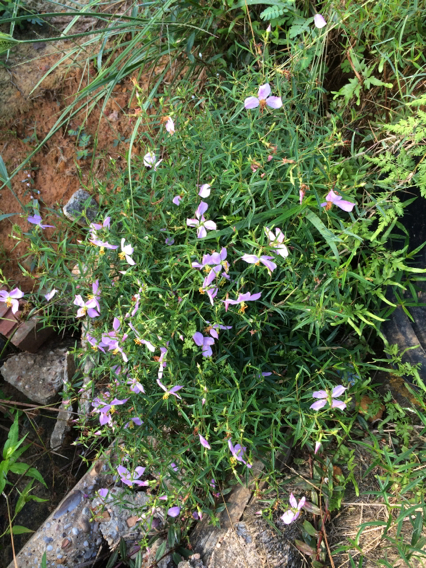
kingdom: Plantae
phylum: Tracheophyta
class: Magnoliopsida
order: Myrtales
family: Melastomataceae
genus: Rhexia
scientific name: Rhexia mariana
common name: Dull meadow-pitcher
